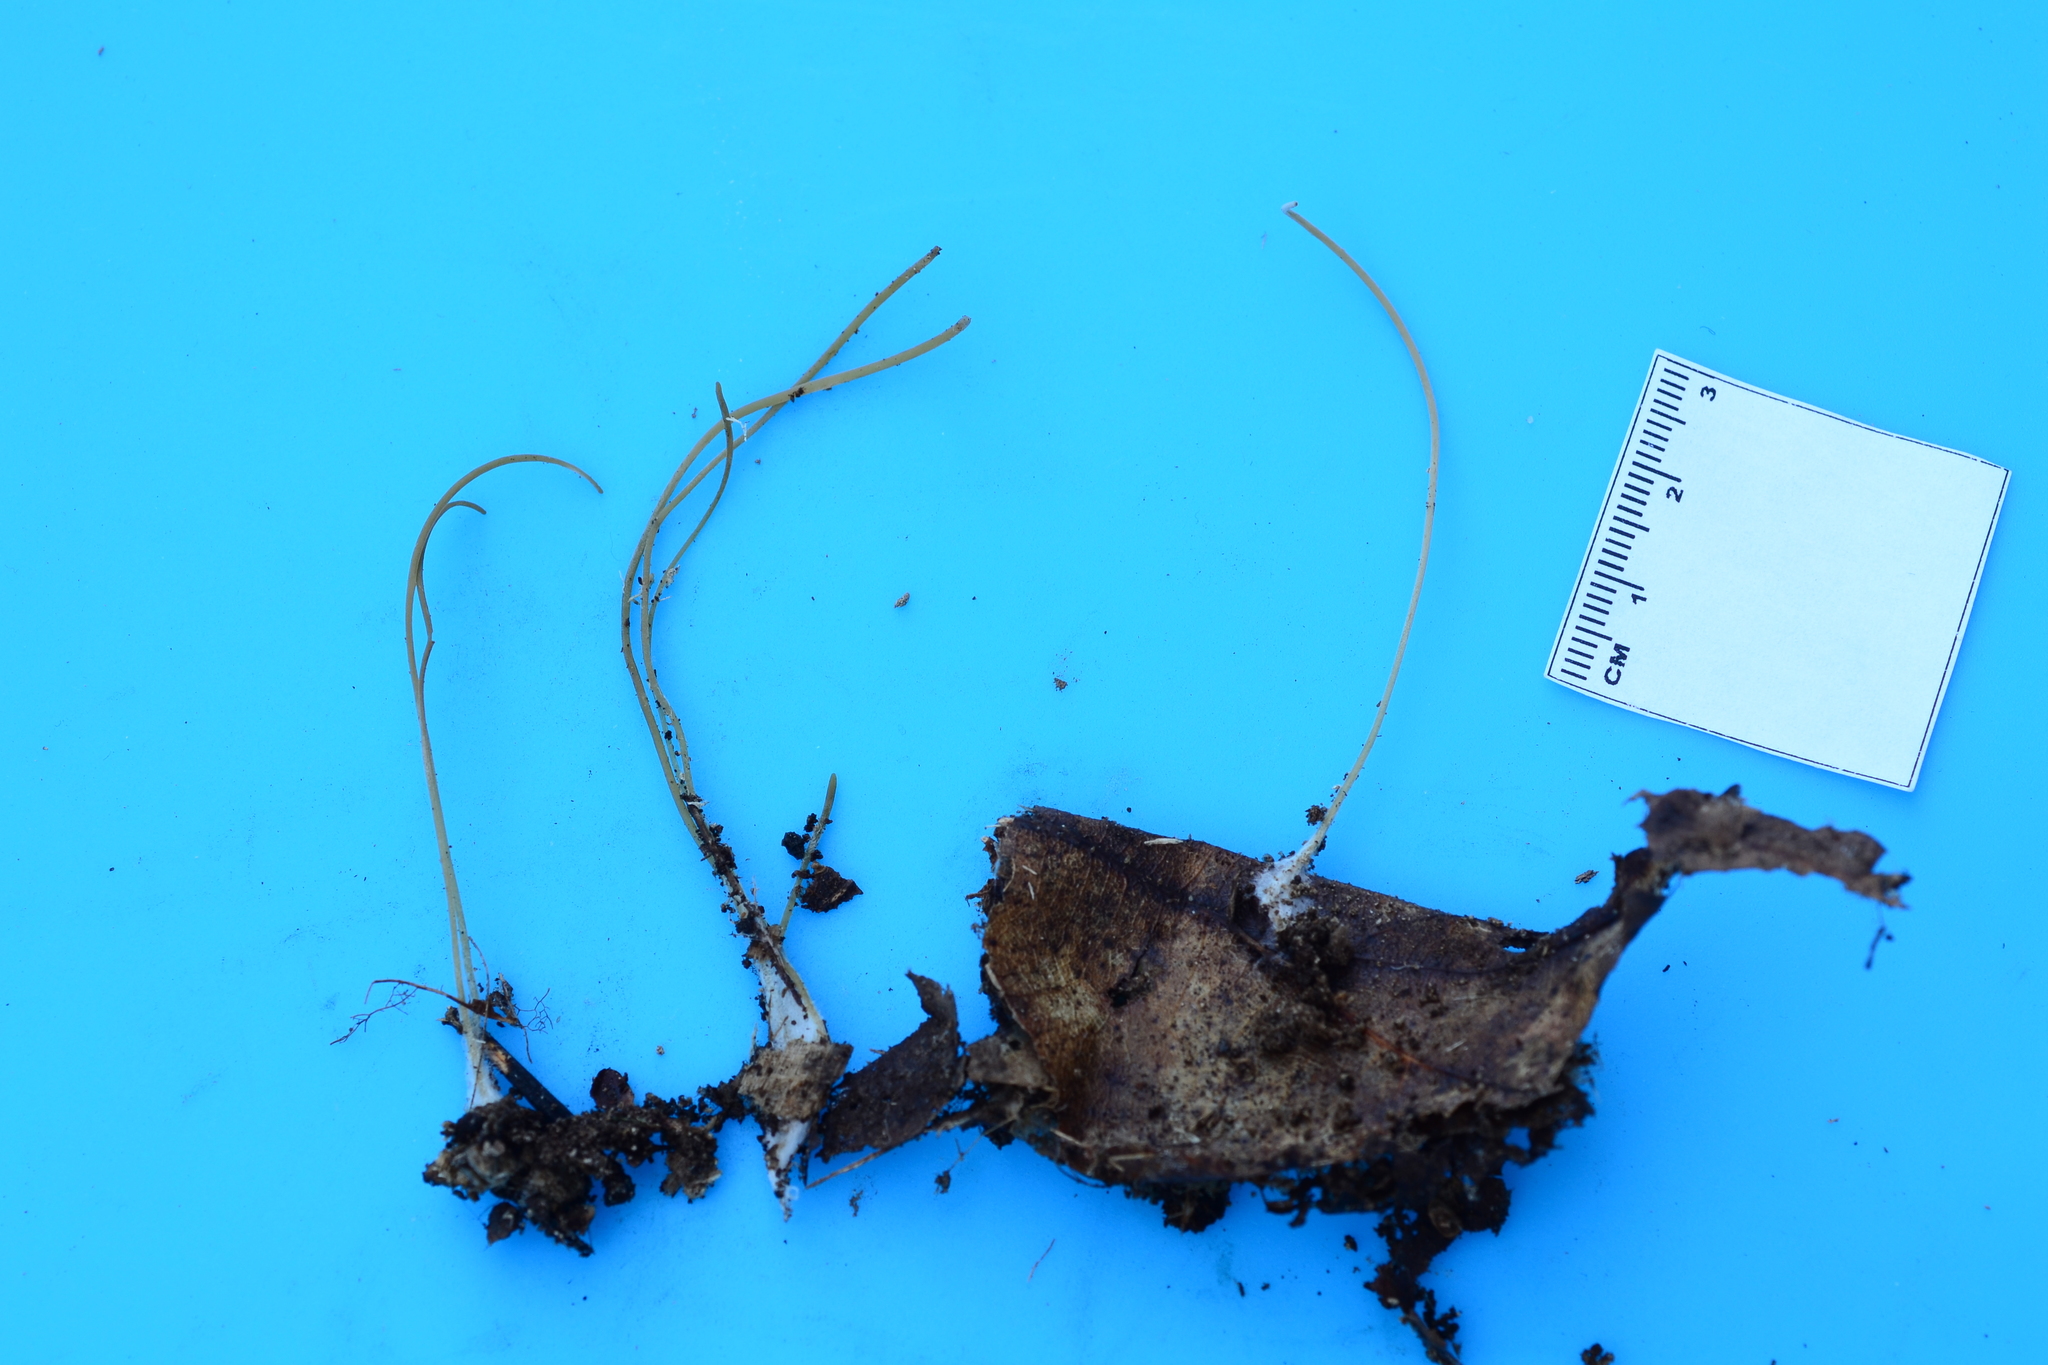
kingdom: Fungi
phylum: Basidiomycota
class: Agaricomycetes
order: Agaricales
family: Typhulaceae
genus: Typhula
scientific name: Typhula juncea
